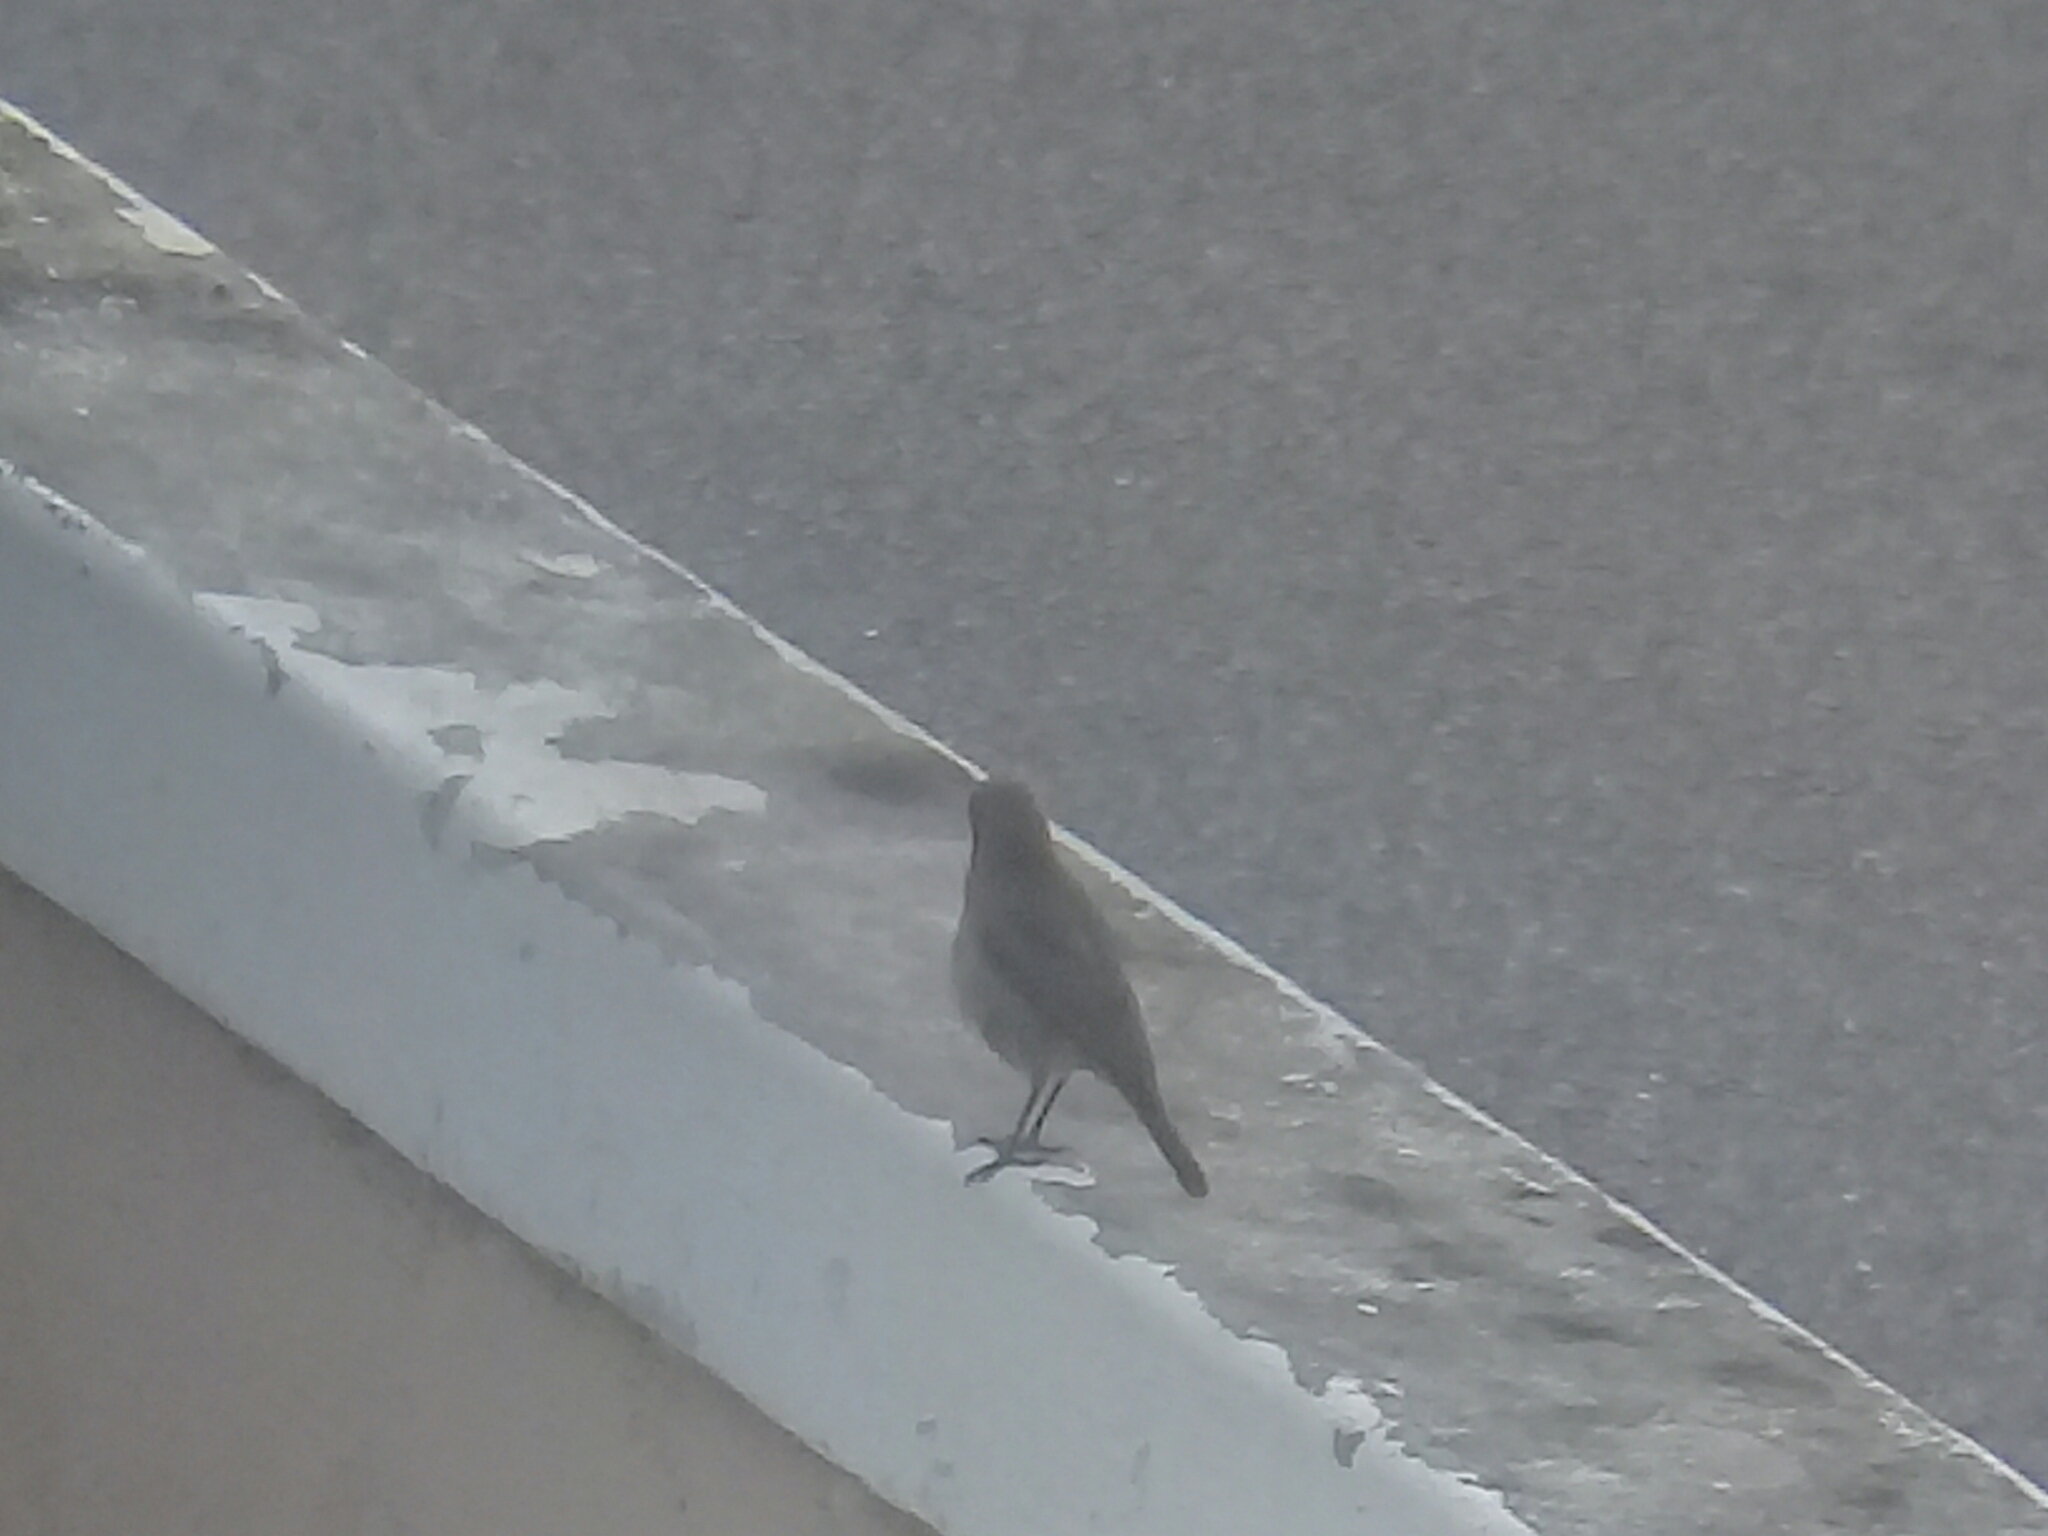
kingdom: Animalia
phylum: Chordata
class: Aves
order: Passeriformes
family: Muscicapidae
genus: Oenanthe
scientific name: Oenanthe familiaris
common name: Familiar chat
